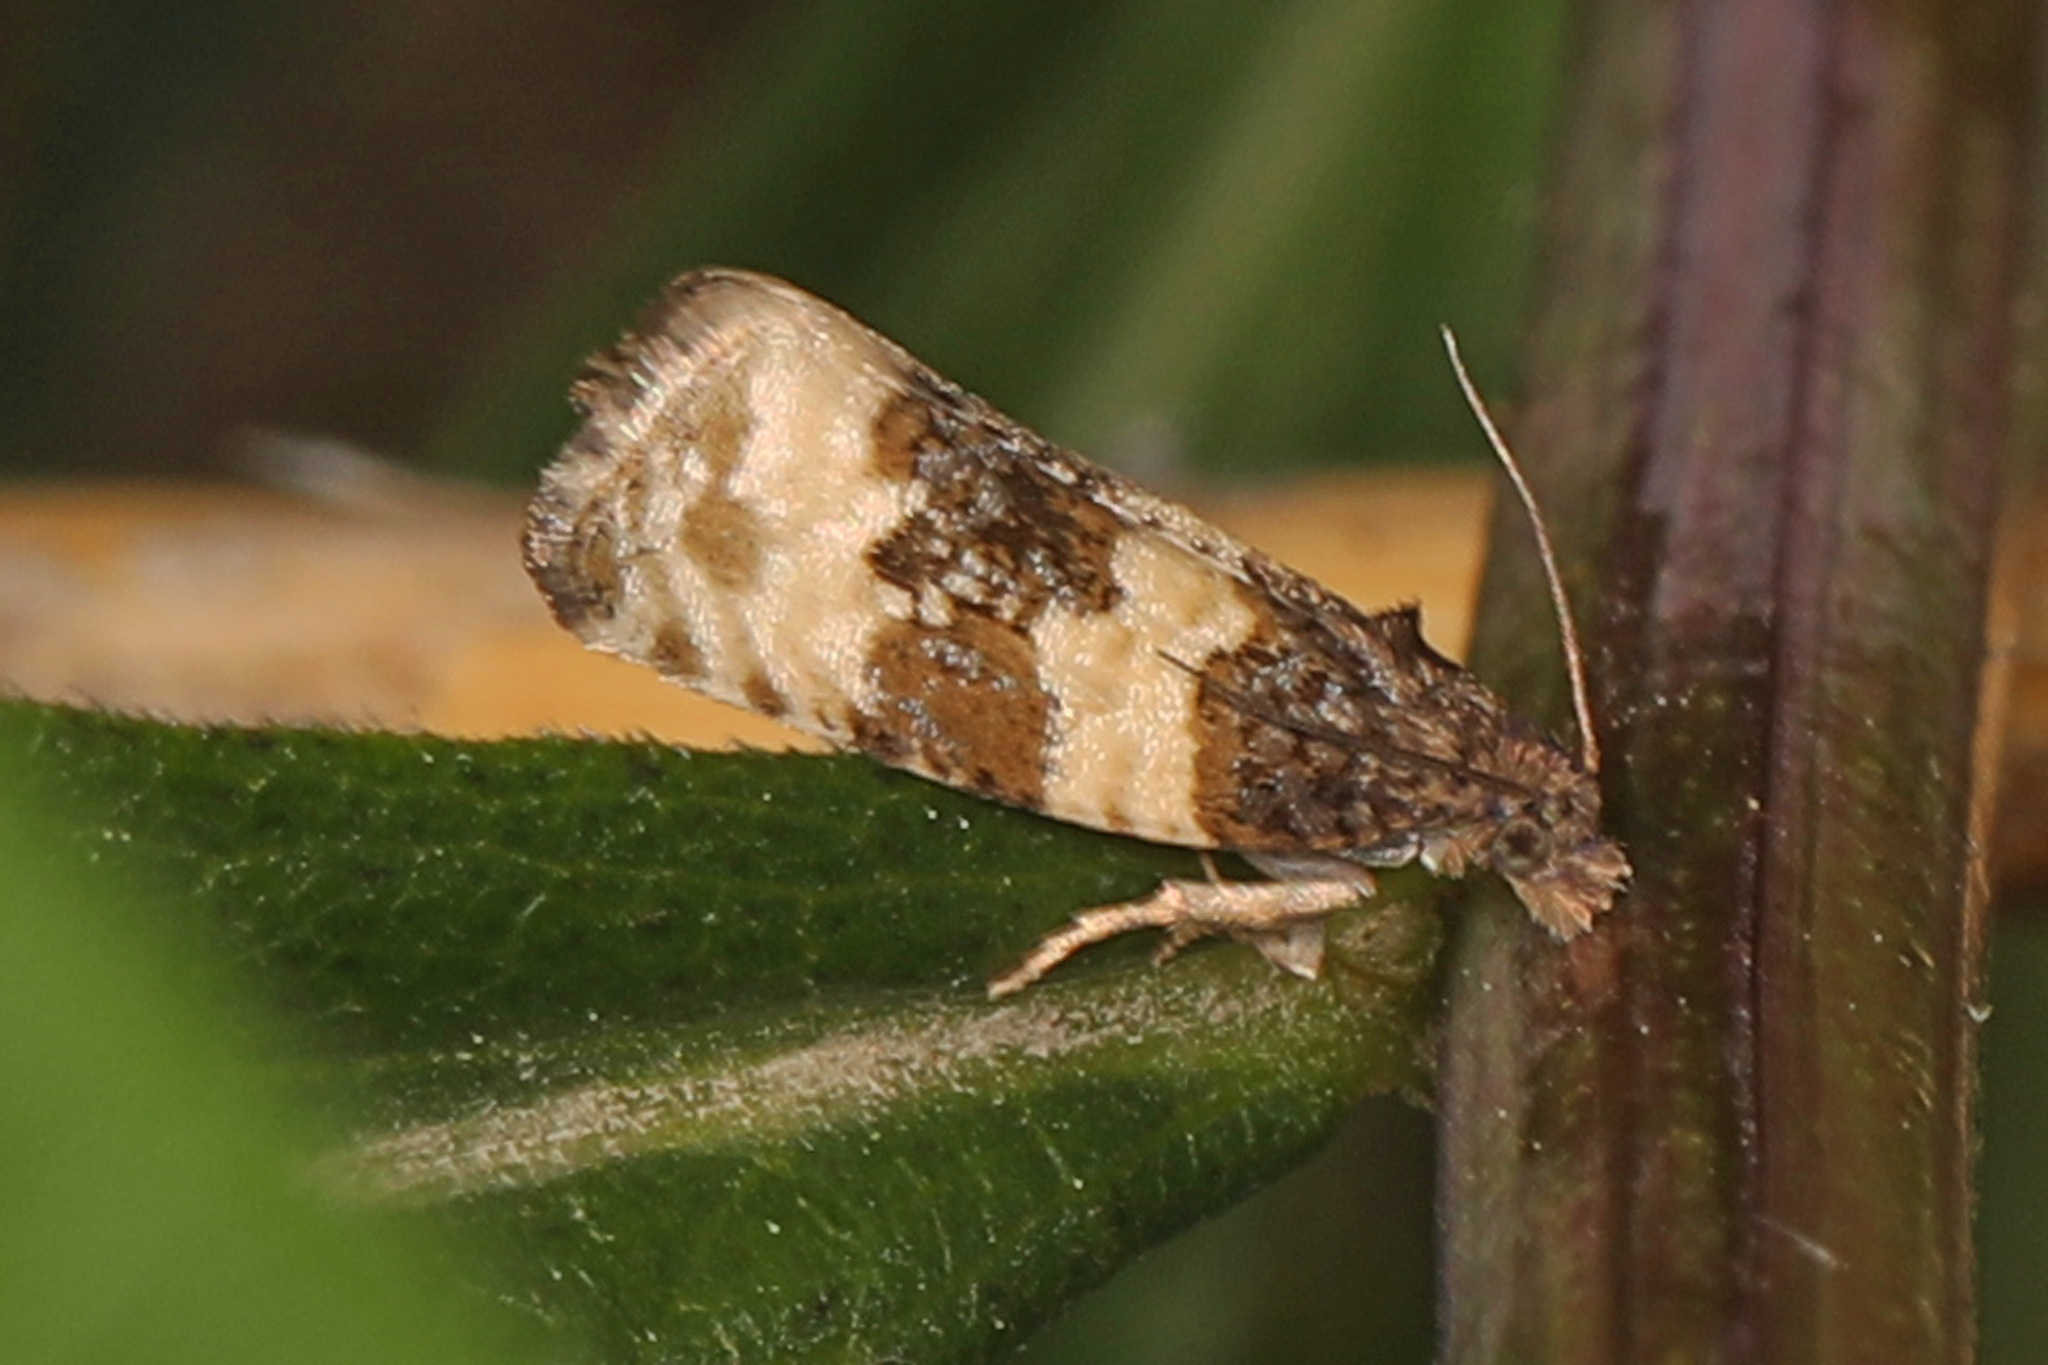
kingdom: Animalia
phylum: Arthropoda
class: Insecta
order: Lepidoptera
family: Tortricidae
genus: Olethreutes
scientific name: Olethreutes bipartitana
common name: Divided olethreutes moth
